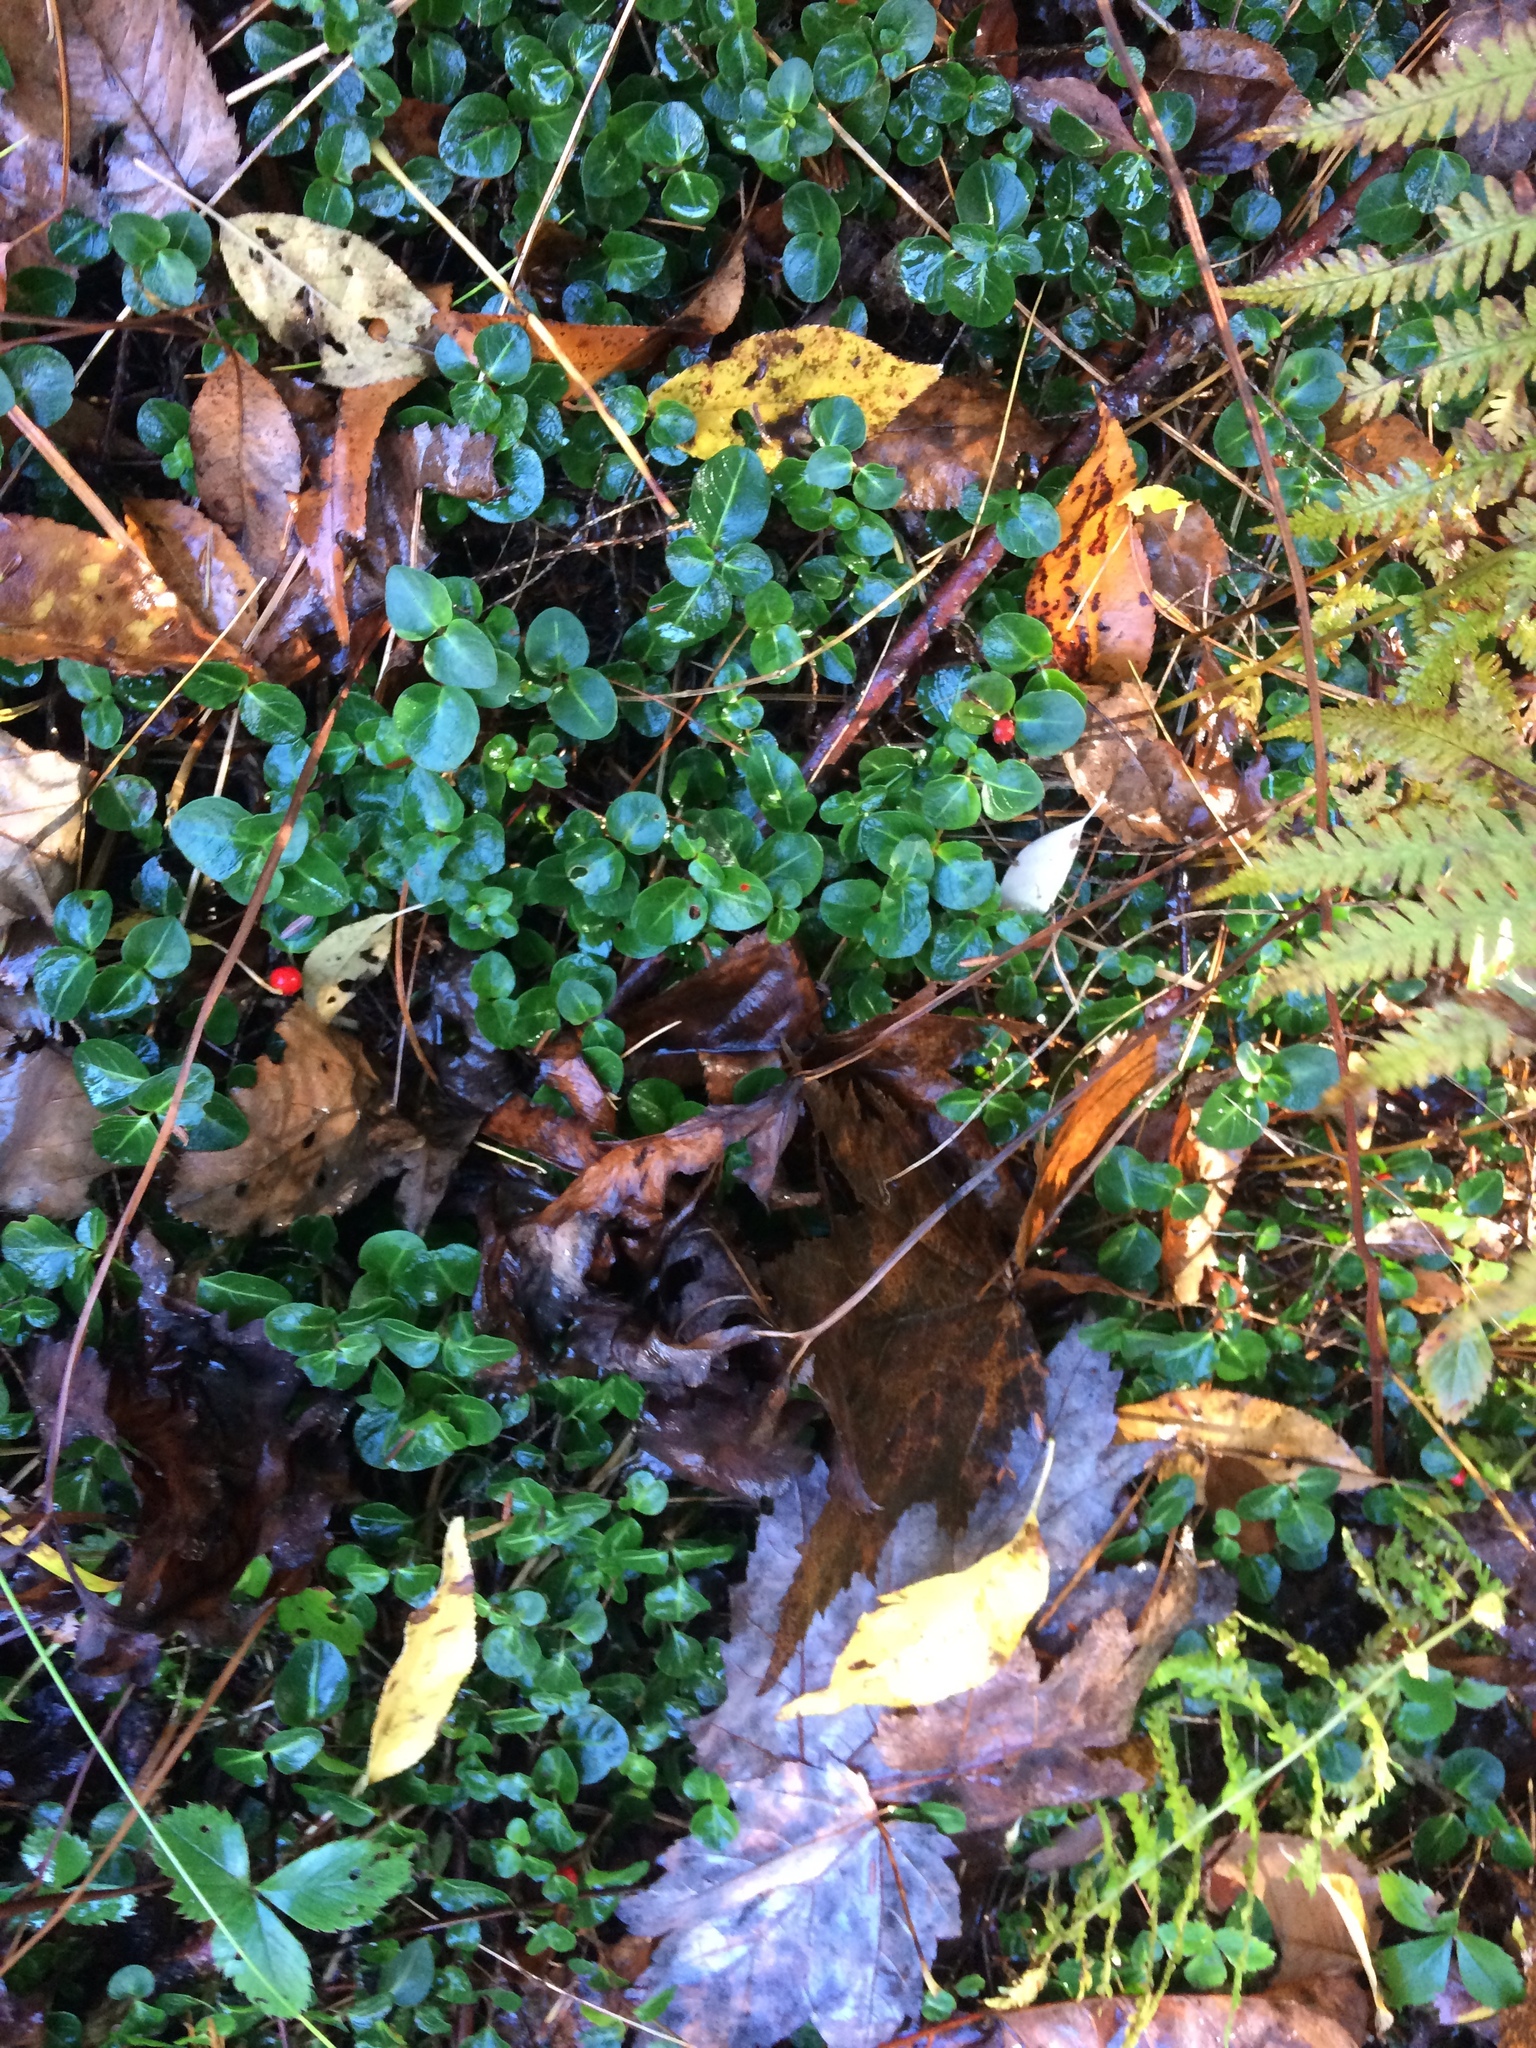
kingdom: Plantae
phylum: Tracheophyta
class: Magnoliopsida
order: Gentianales
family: Rubiaceae
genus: Mitchella
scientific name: Mitchella repens
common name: Partridge-berry
